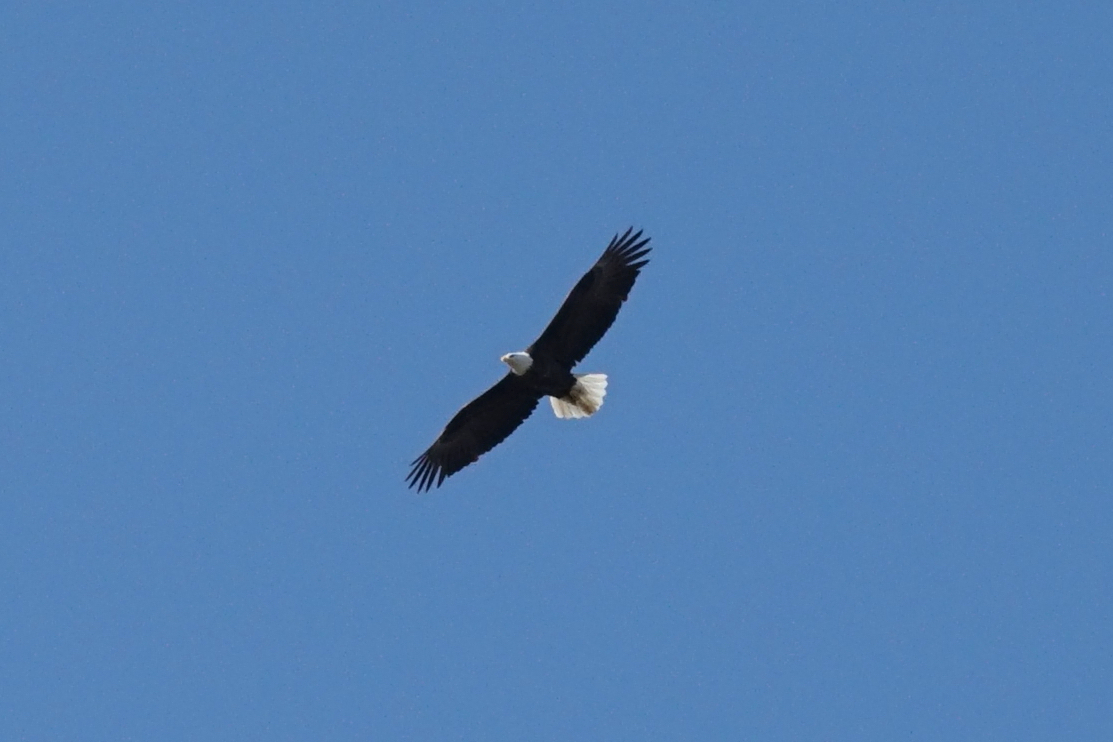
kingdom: Animalia
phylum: Chordata
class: Aves
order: Accipitriformes
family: Accipitridae
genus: Haliaeetus
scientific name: Haliaeetus leucocephalus
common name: Bald eagle
